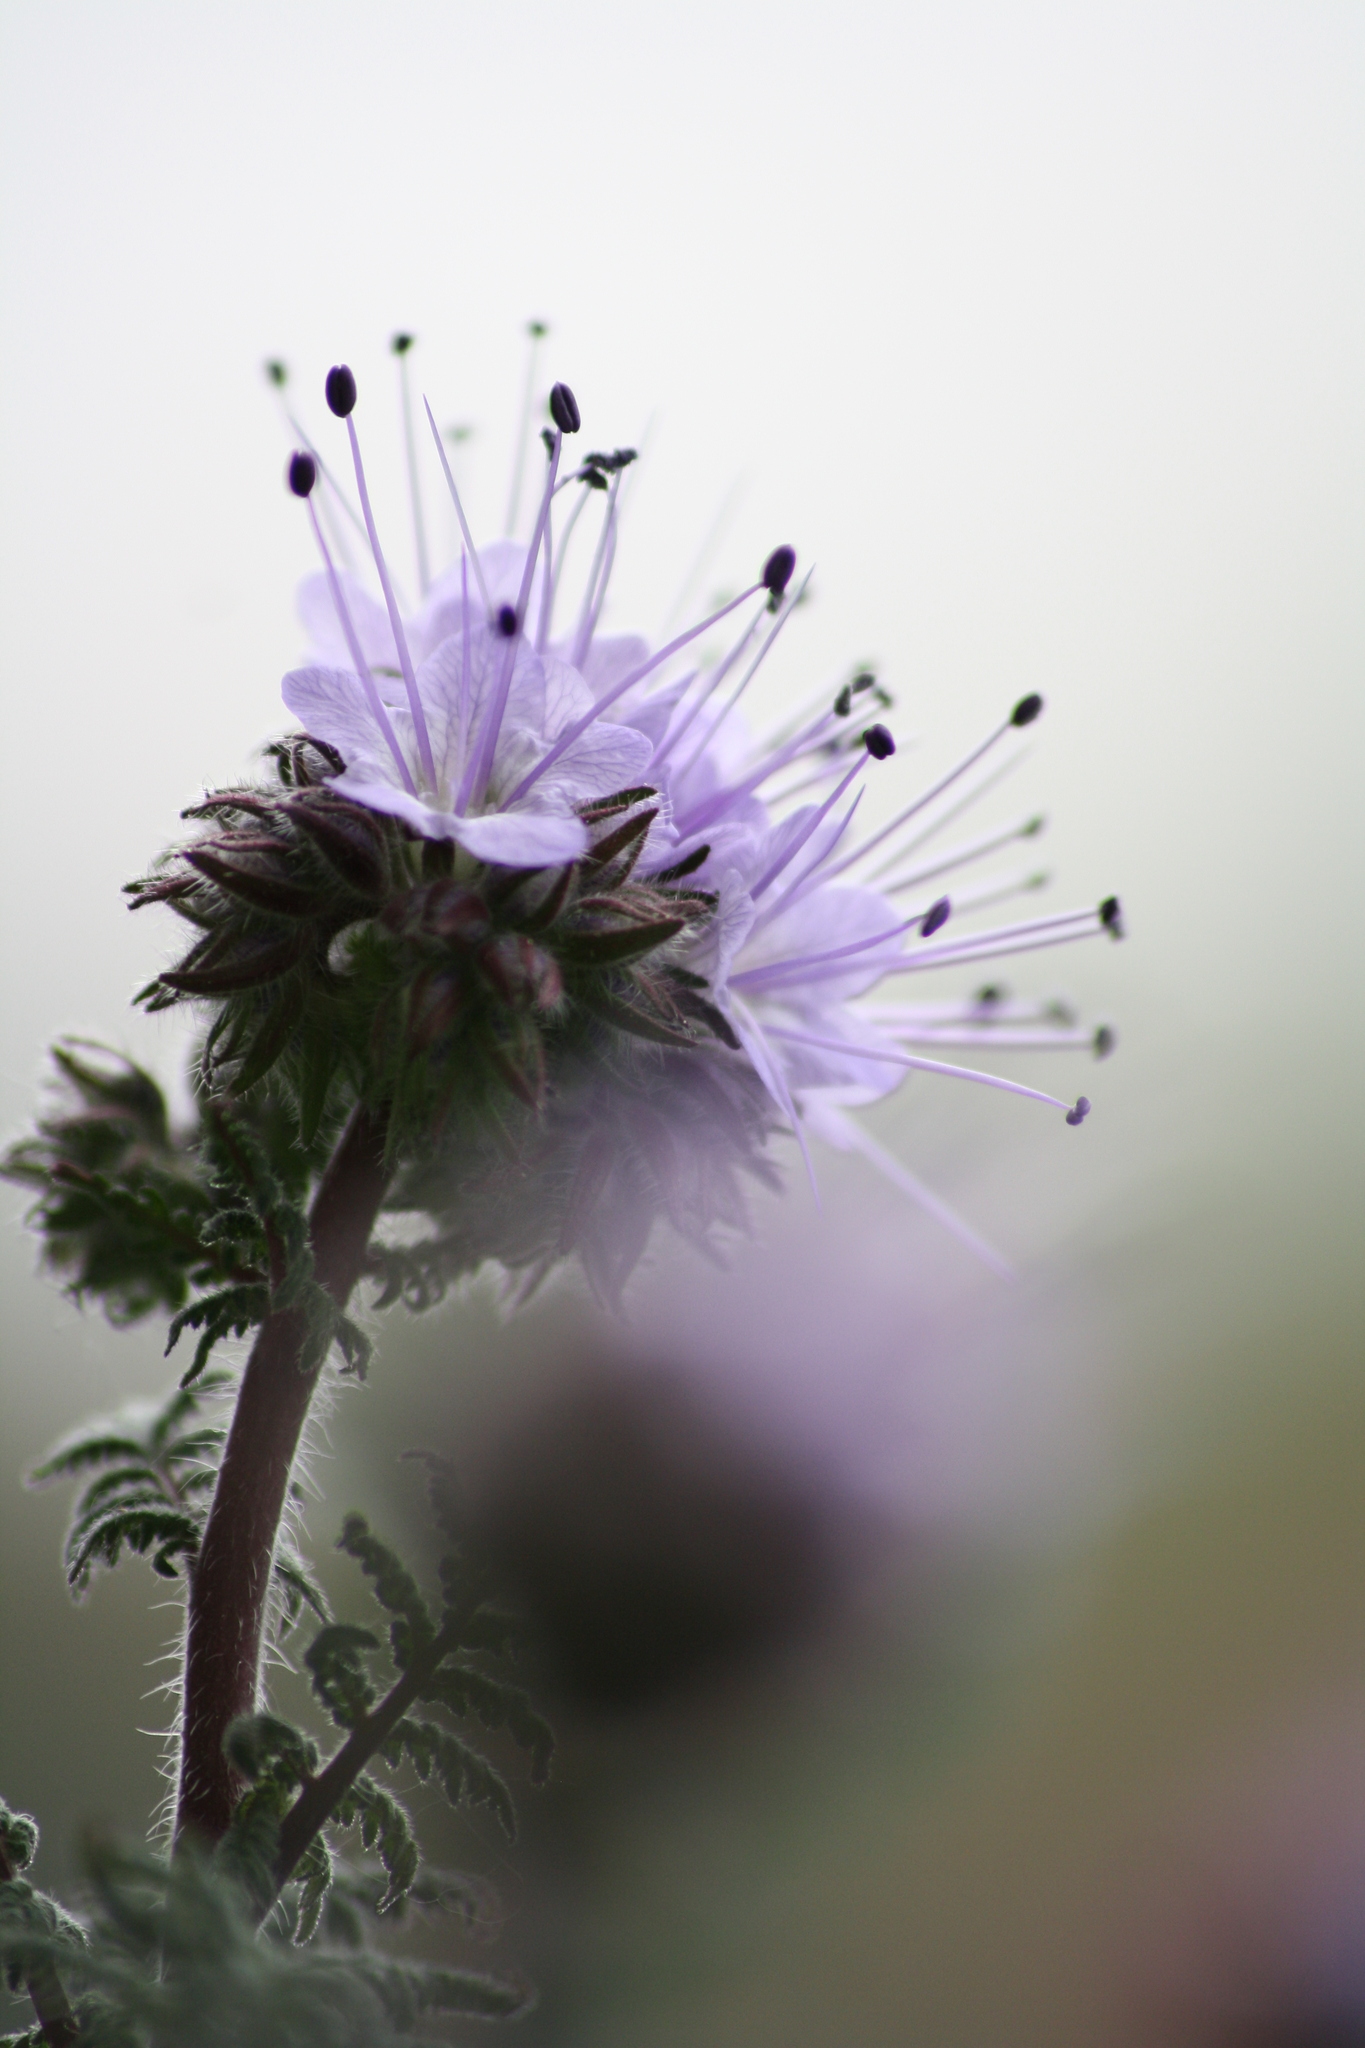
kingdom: Plantae
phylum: Tracheophyta
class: Magnoliopsida
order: Boraginales
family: Hydrophyllaceae
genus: Phacelia
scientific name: Phacelia tanacetifolia
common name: Phacelia
